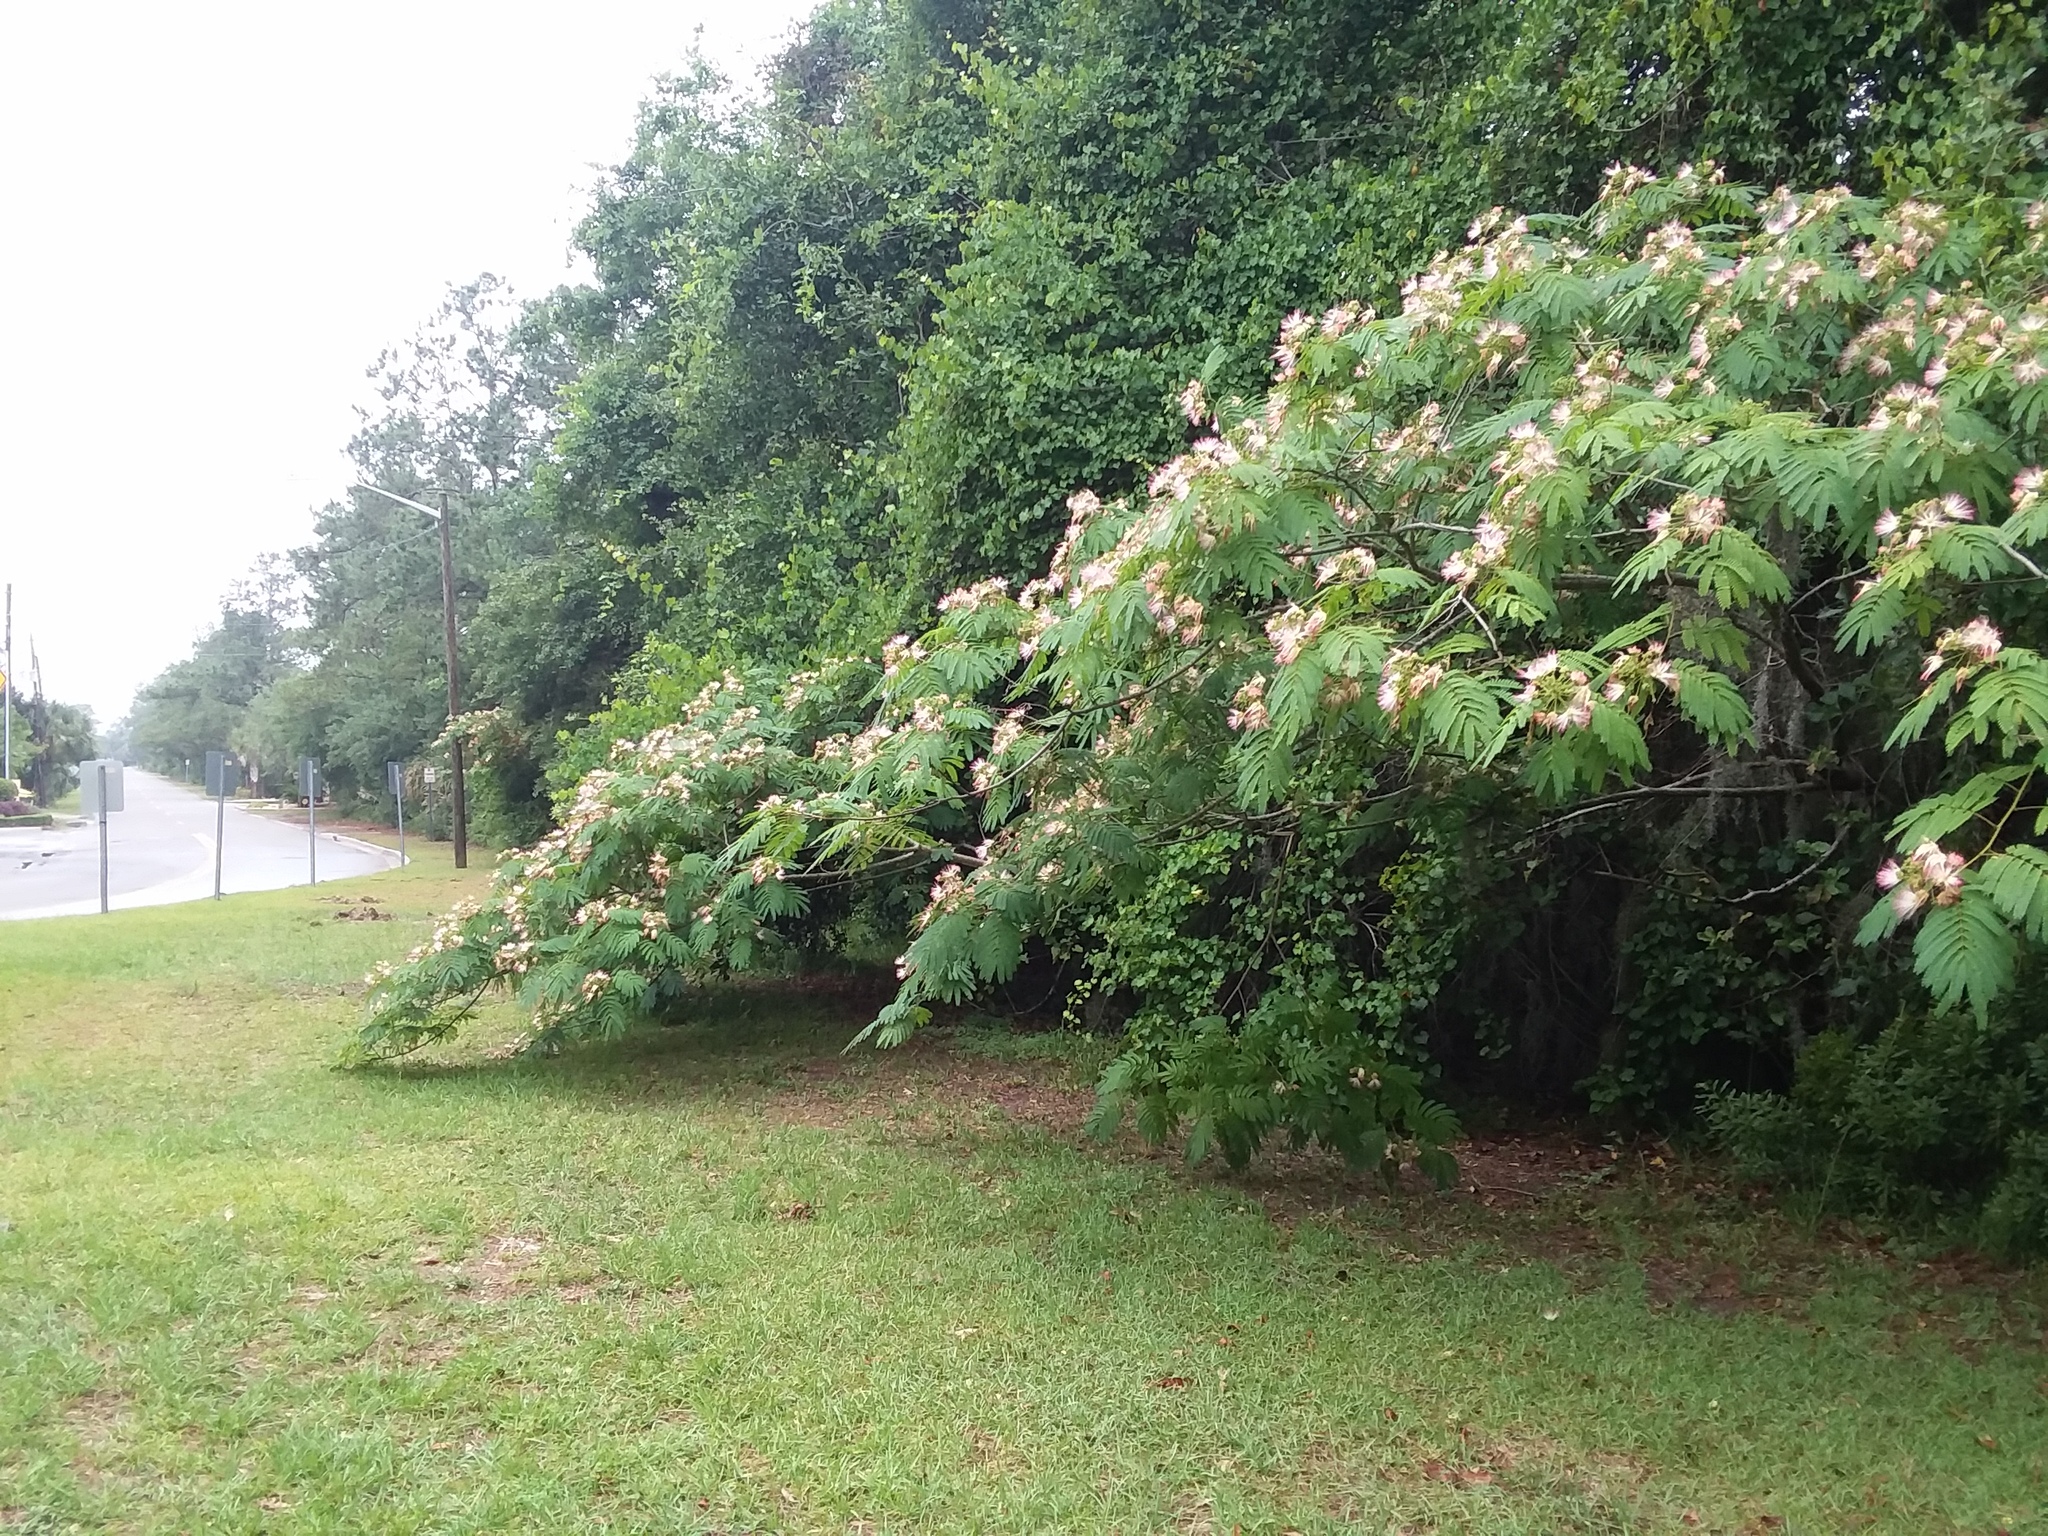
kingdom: Plantae
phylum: Tracheophyta
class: Magnoliopsida
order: Fabales
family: Fabaceae
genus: Albizia
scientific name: Albizia julibrissin
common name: Silktree
